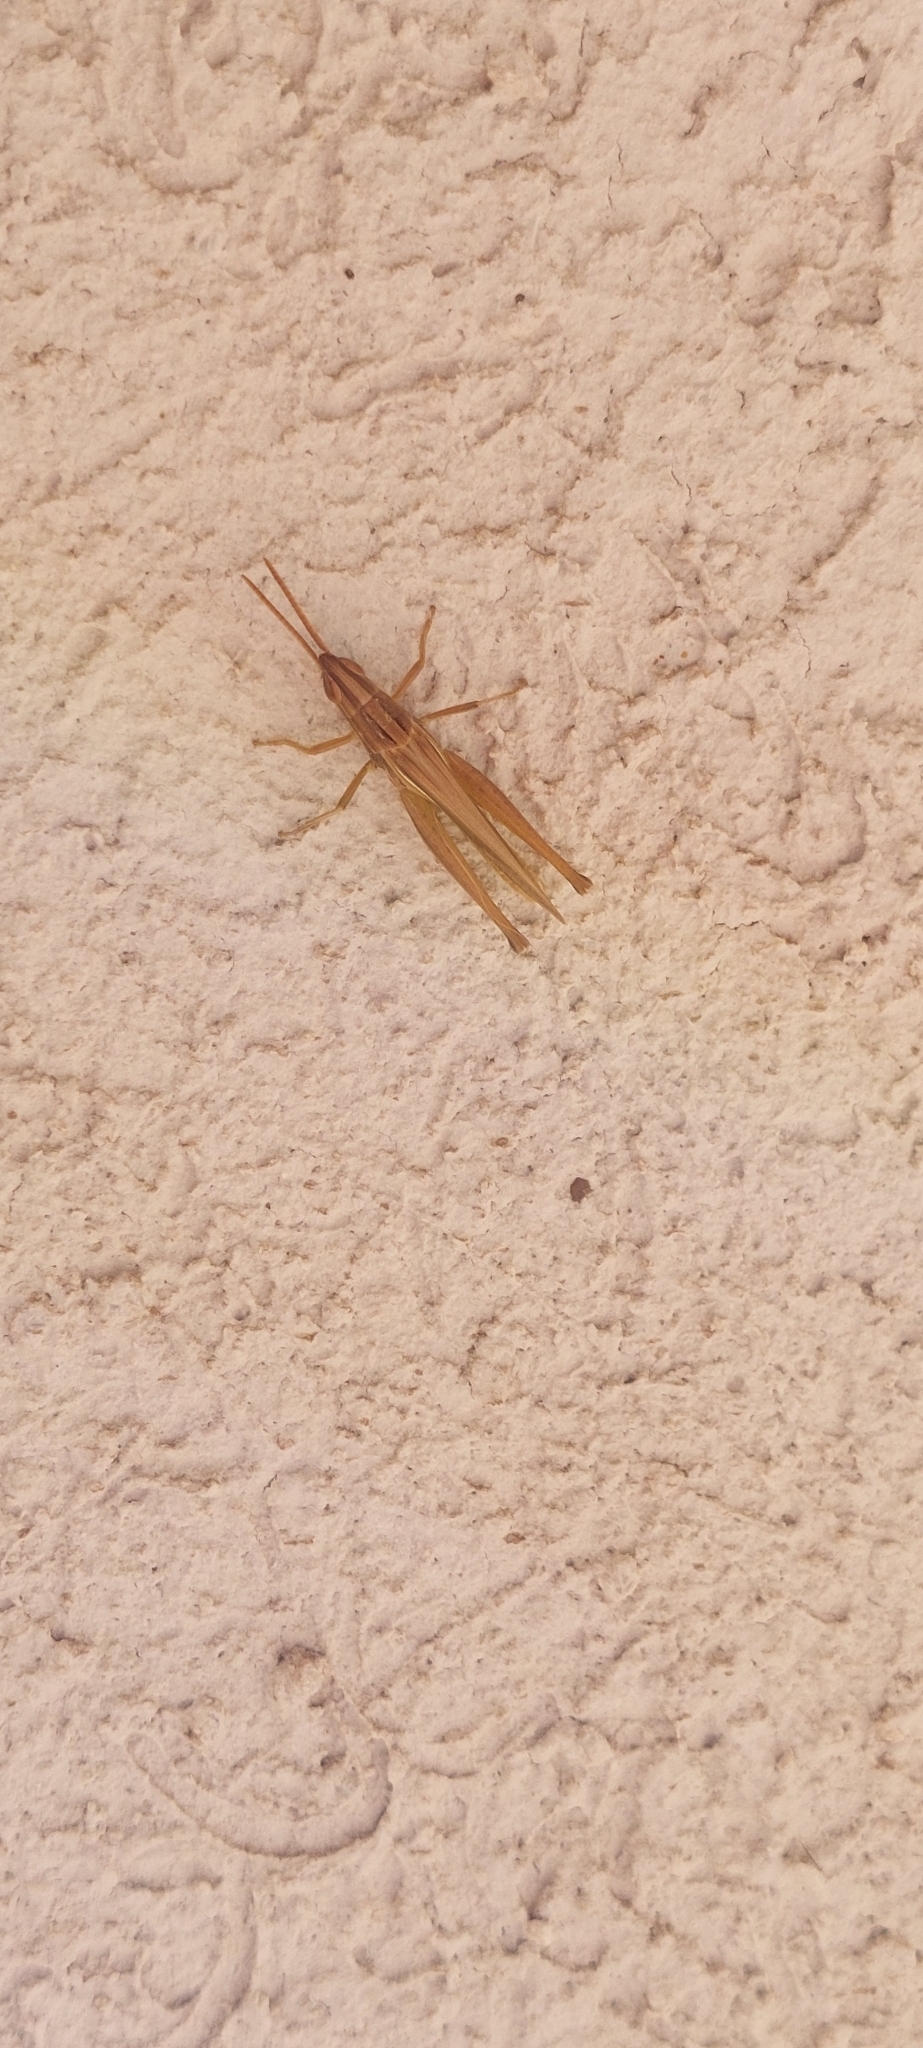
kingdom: Animalia
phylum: Arthropoda
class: Insecta
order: Orthoptera
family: Acrididae
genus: Sinipta
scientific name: Sinipta dalmani
